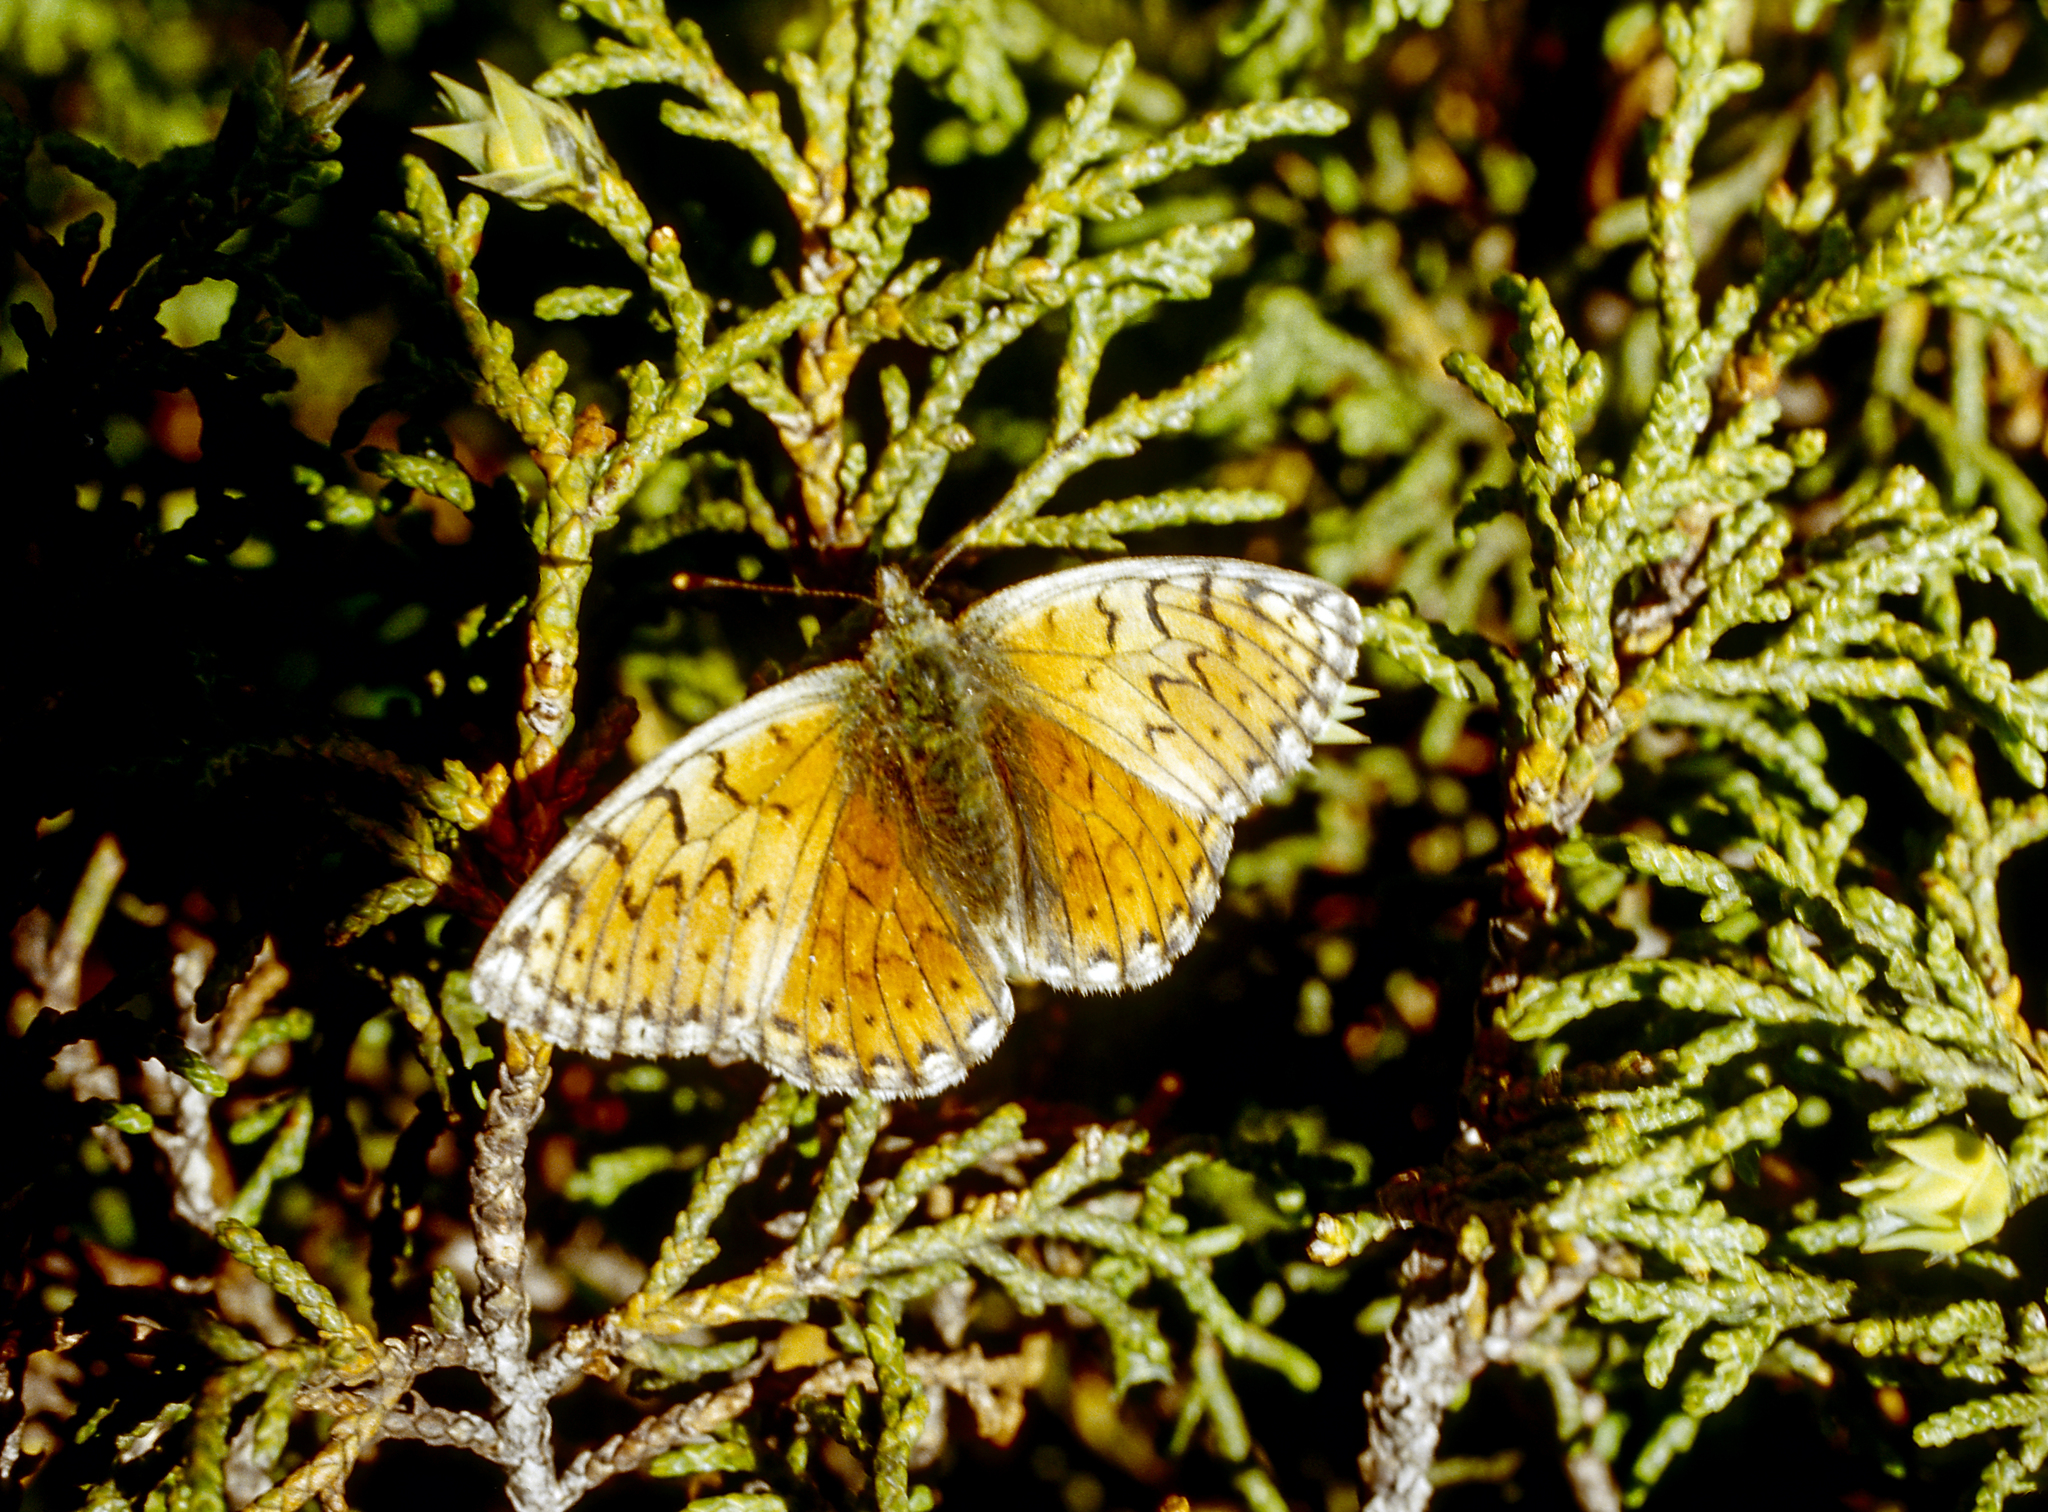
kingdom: Animalia
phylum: Arthropoda
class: Insecta
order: Lepidoptera
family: Nymphalidae
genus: Boloria
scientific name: Boloria sipora
